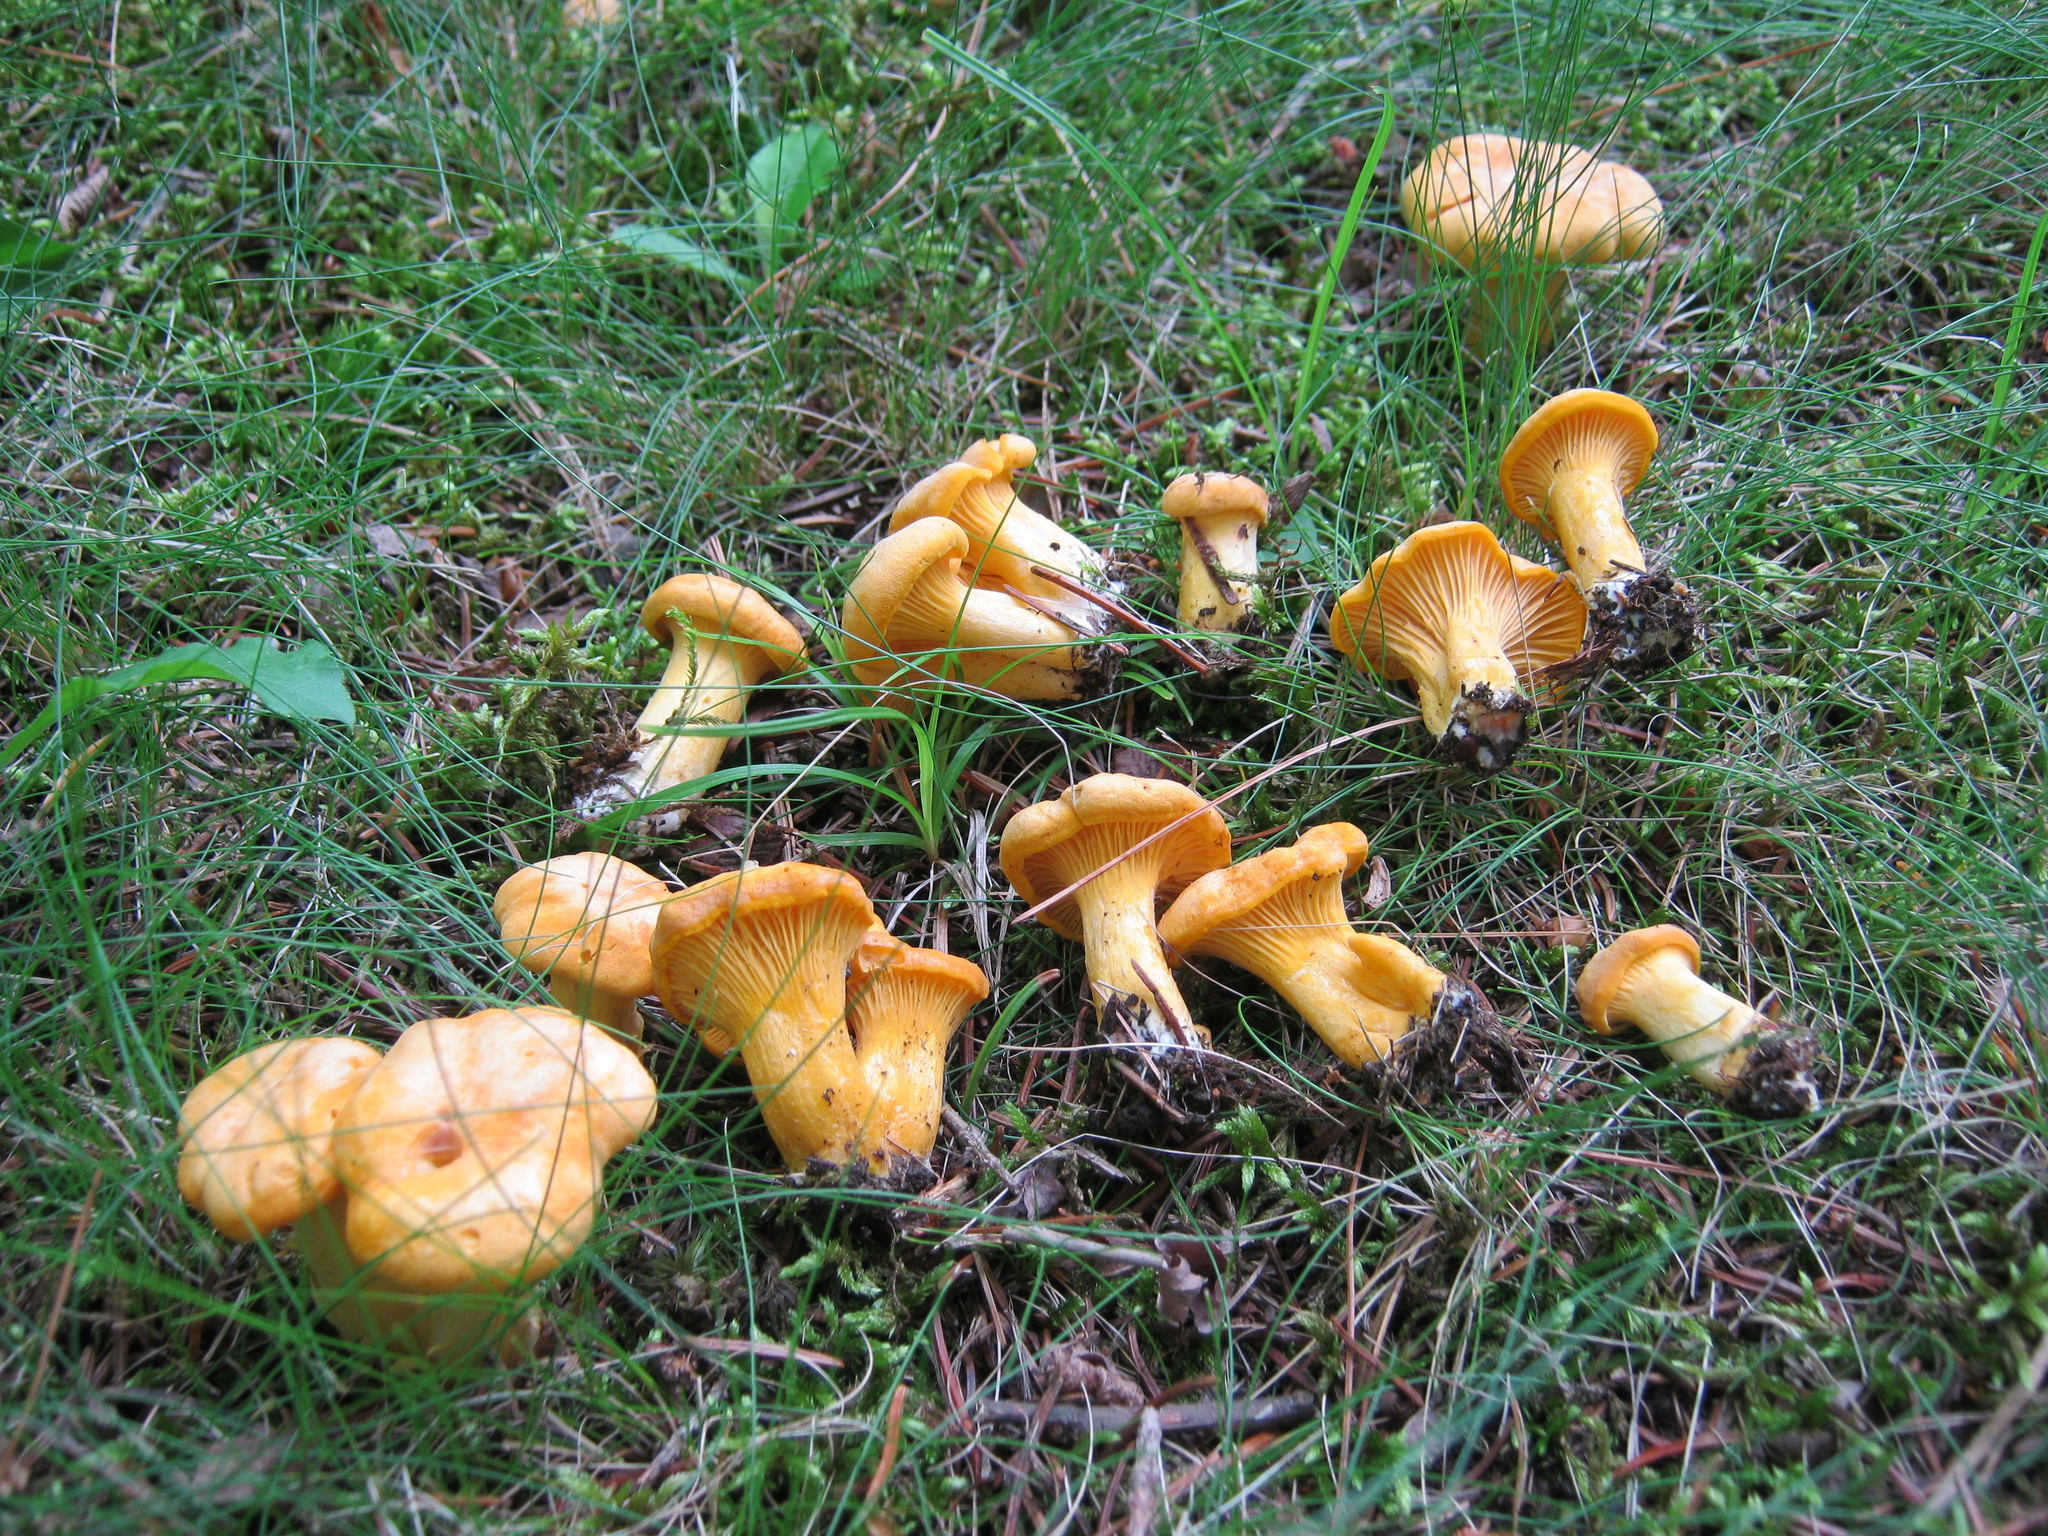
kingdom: Fungi
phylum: Basidiomycota
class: Agaricomycetes
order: Cantharellales
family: Hydnaceae
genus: Cantharellus
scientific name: Cantharellus enelensis
